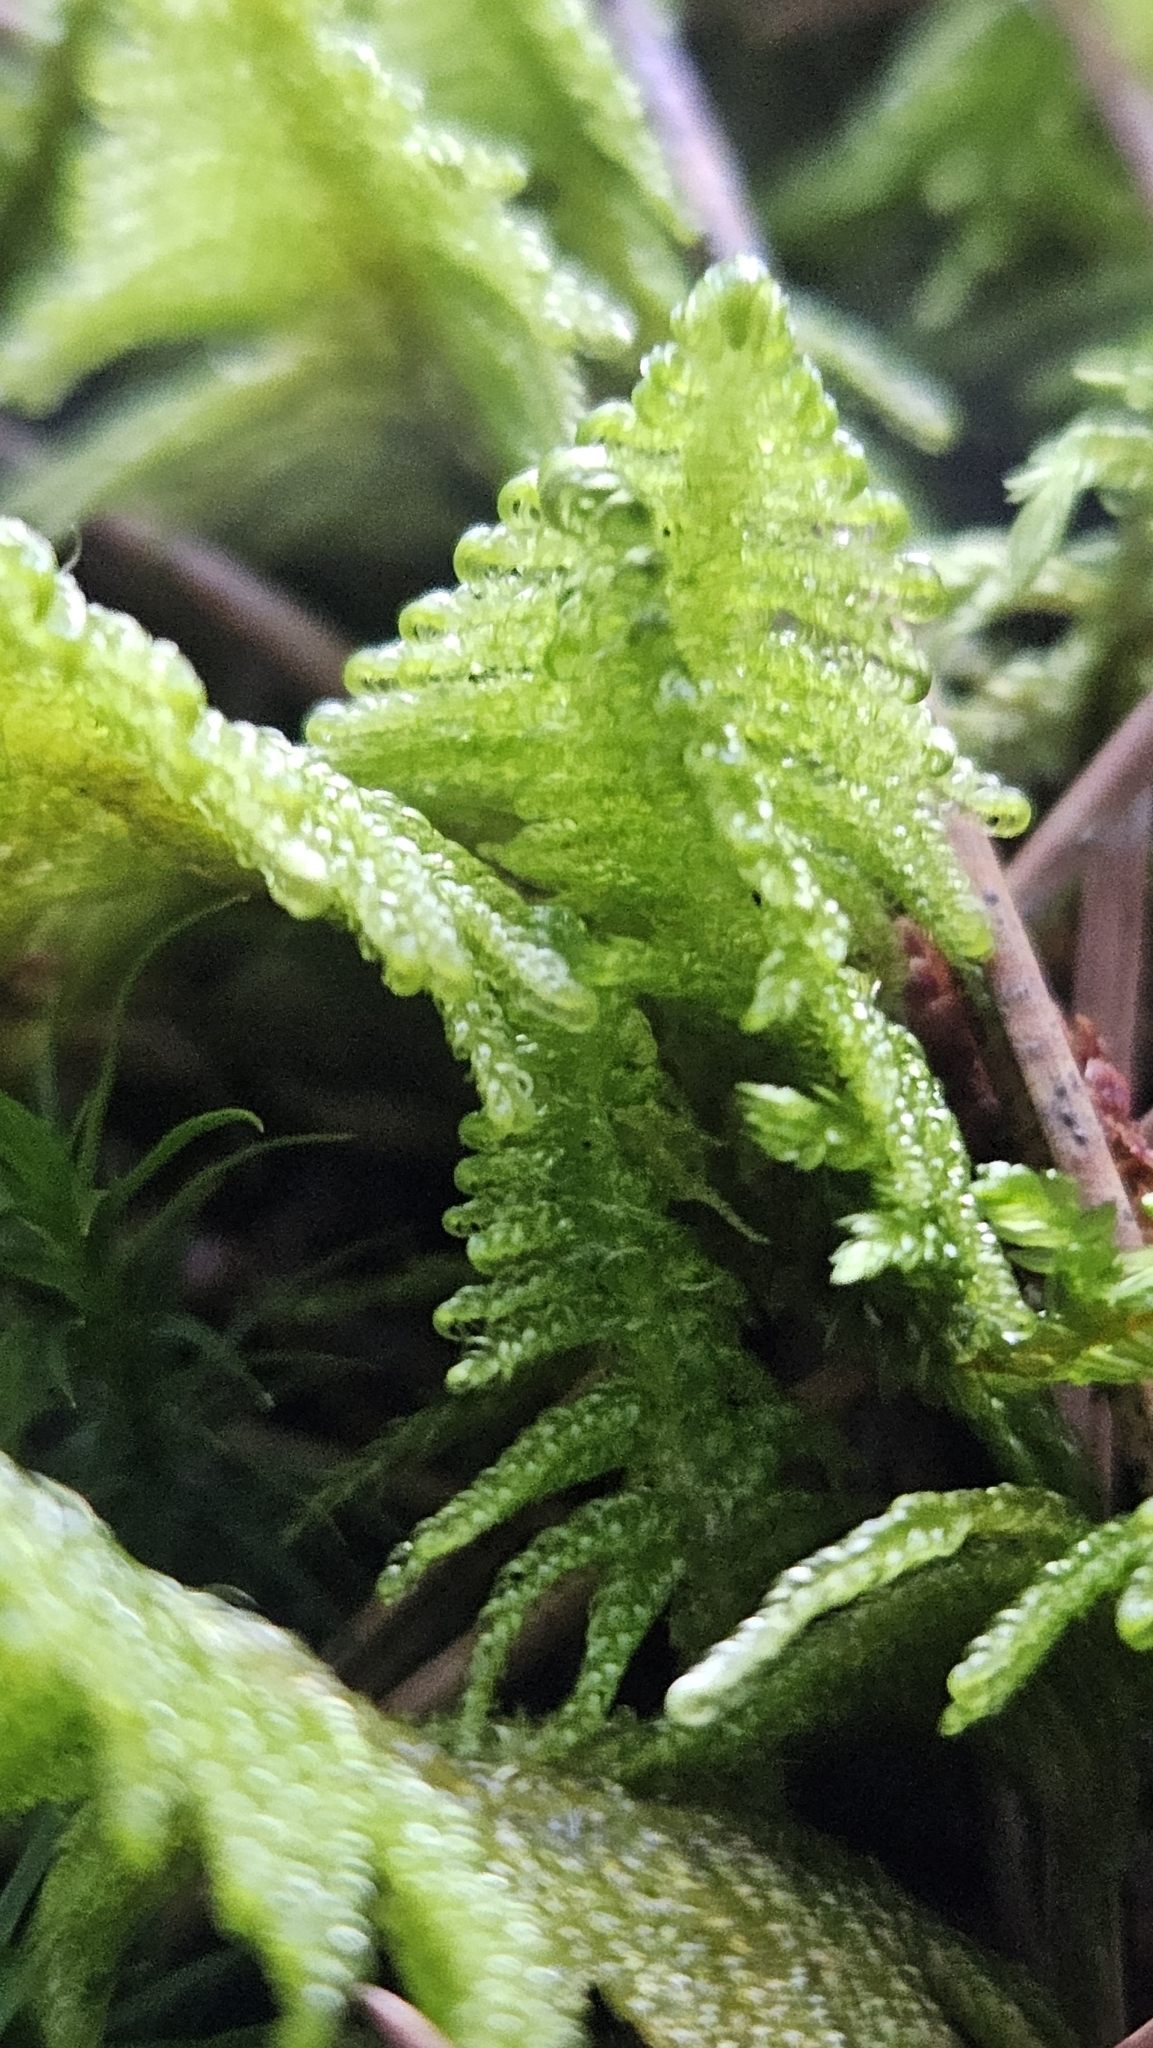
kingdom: Plantae
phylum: Bryophyta
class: Bryopsida
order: Hypnales
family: Pylaisiaceae
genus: Ptilium
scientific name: Ptilium crista-castrensis
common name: Knight's plume moss
